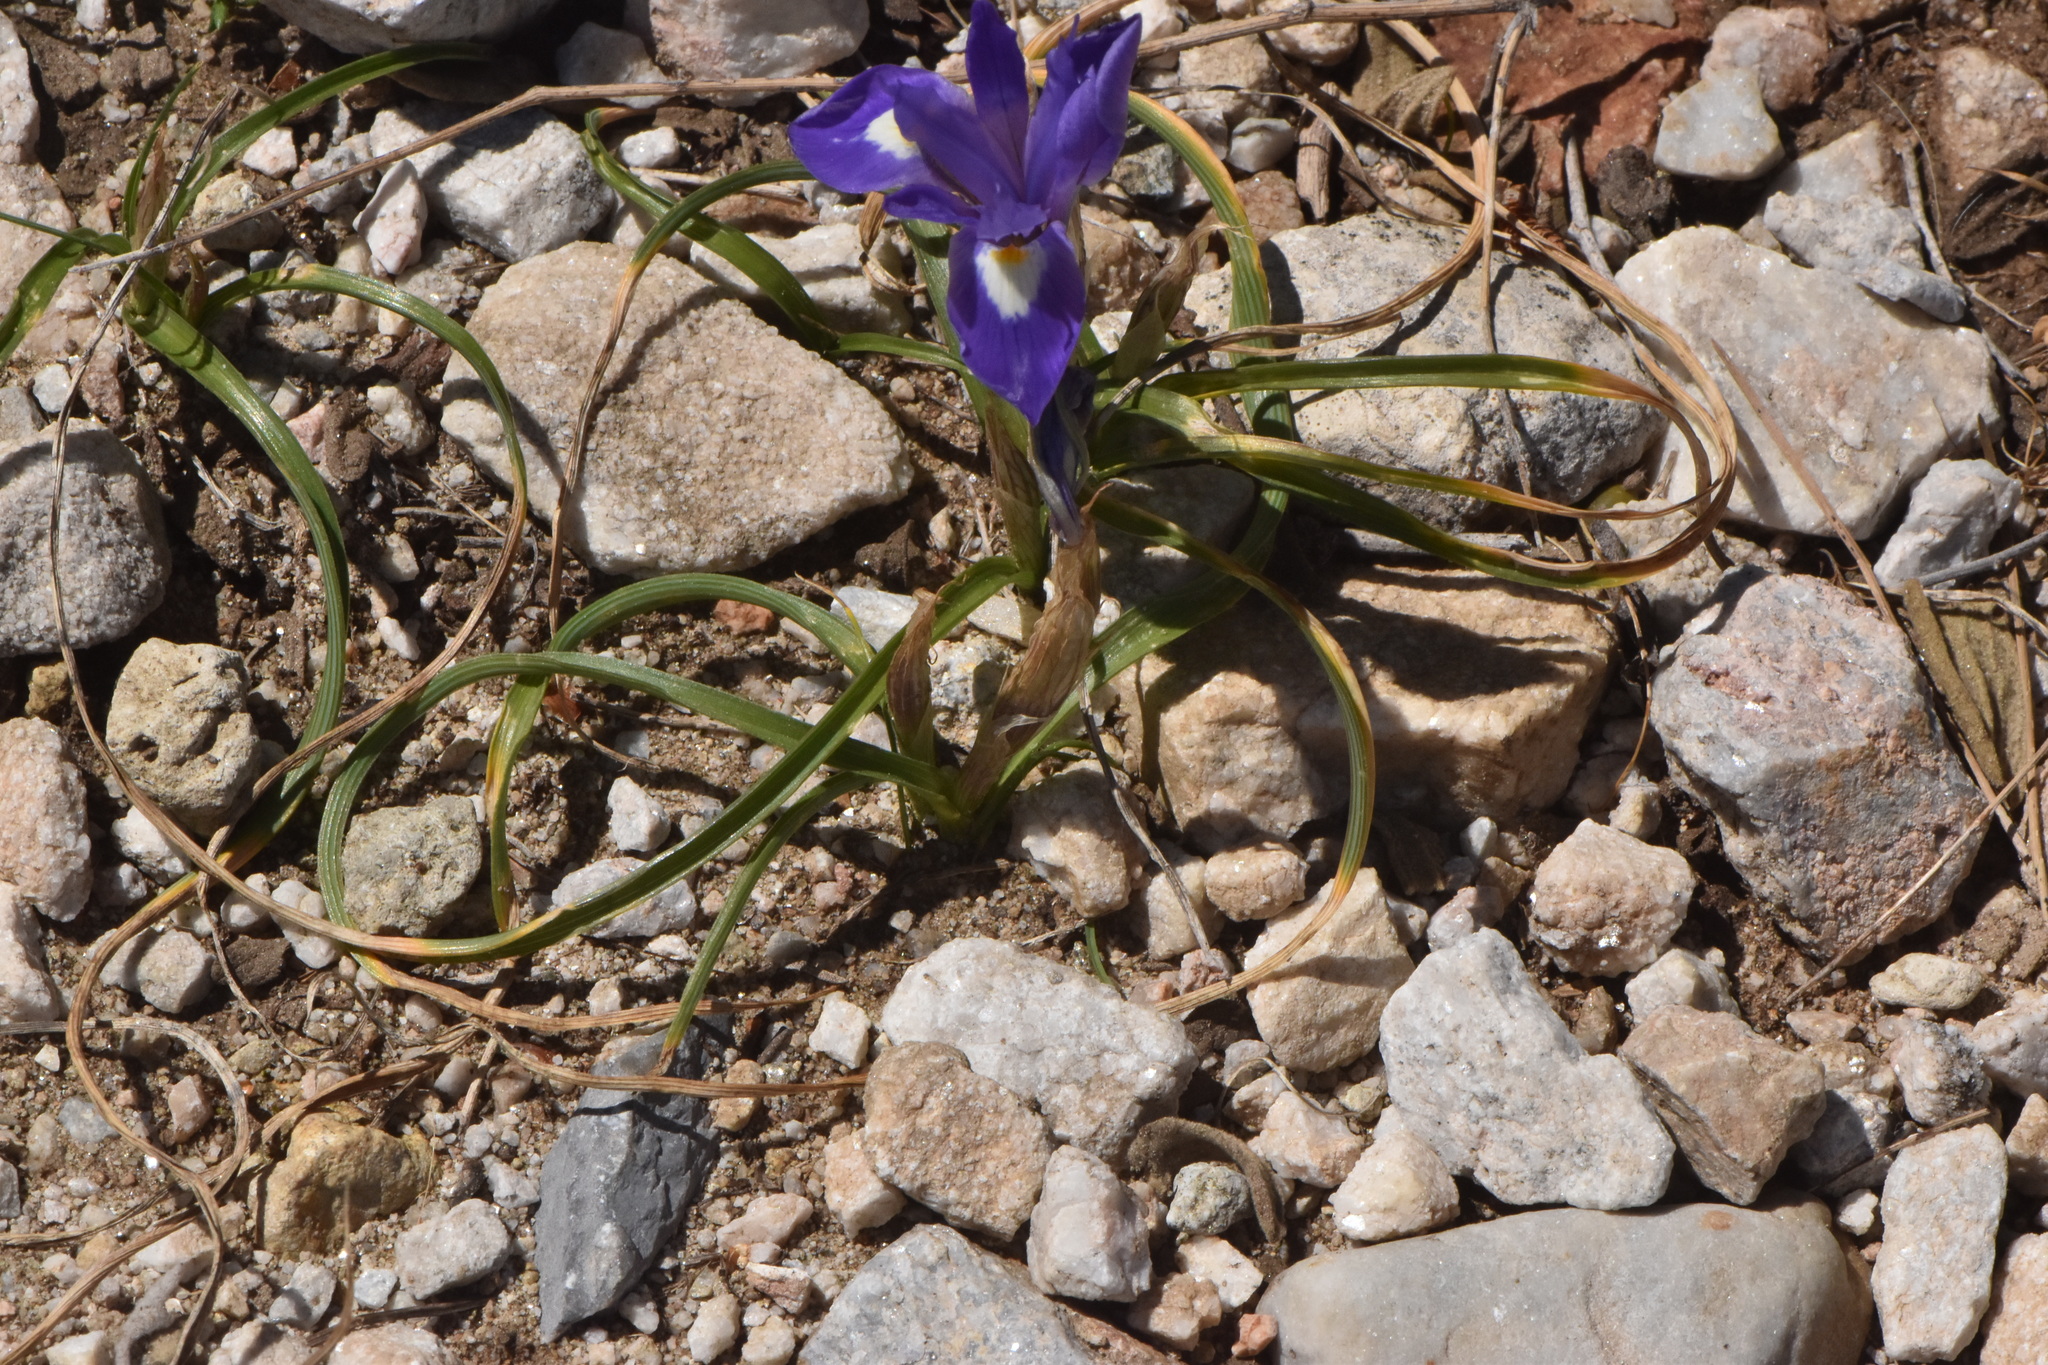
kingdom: Plantae
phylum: Tracheophyta
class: Liliopsida
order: Asparagales
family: Iridaceae
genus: Moraea
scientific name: Moraea sisyrinchium
